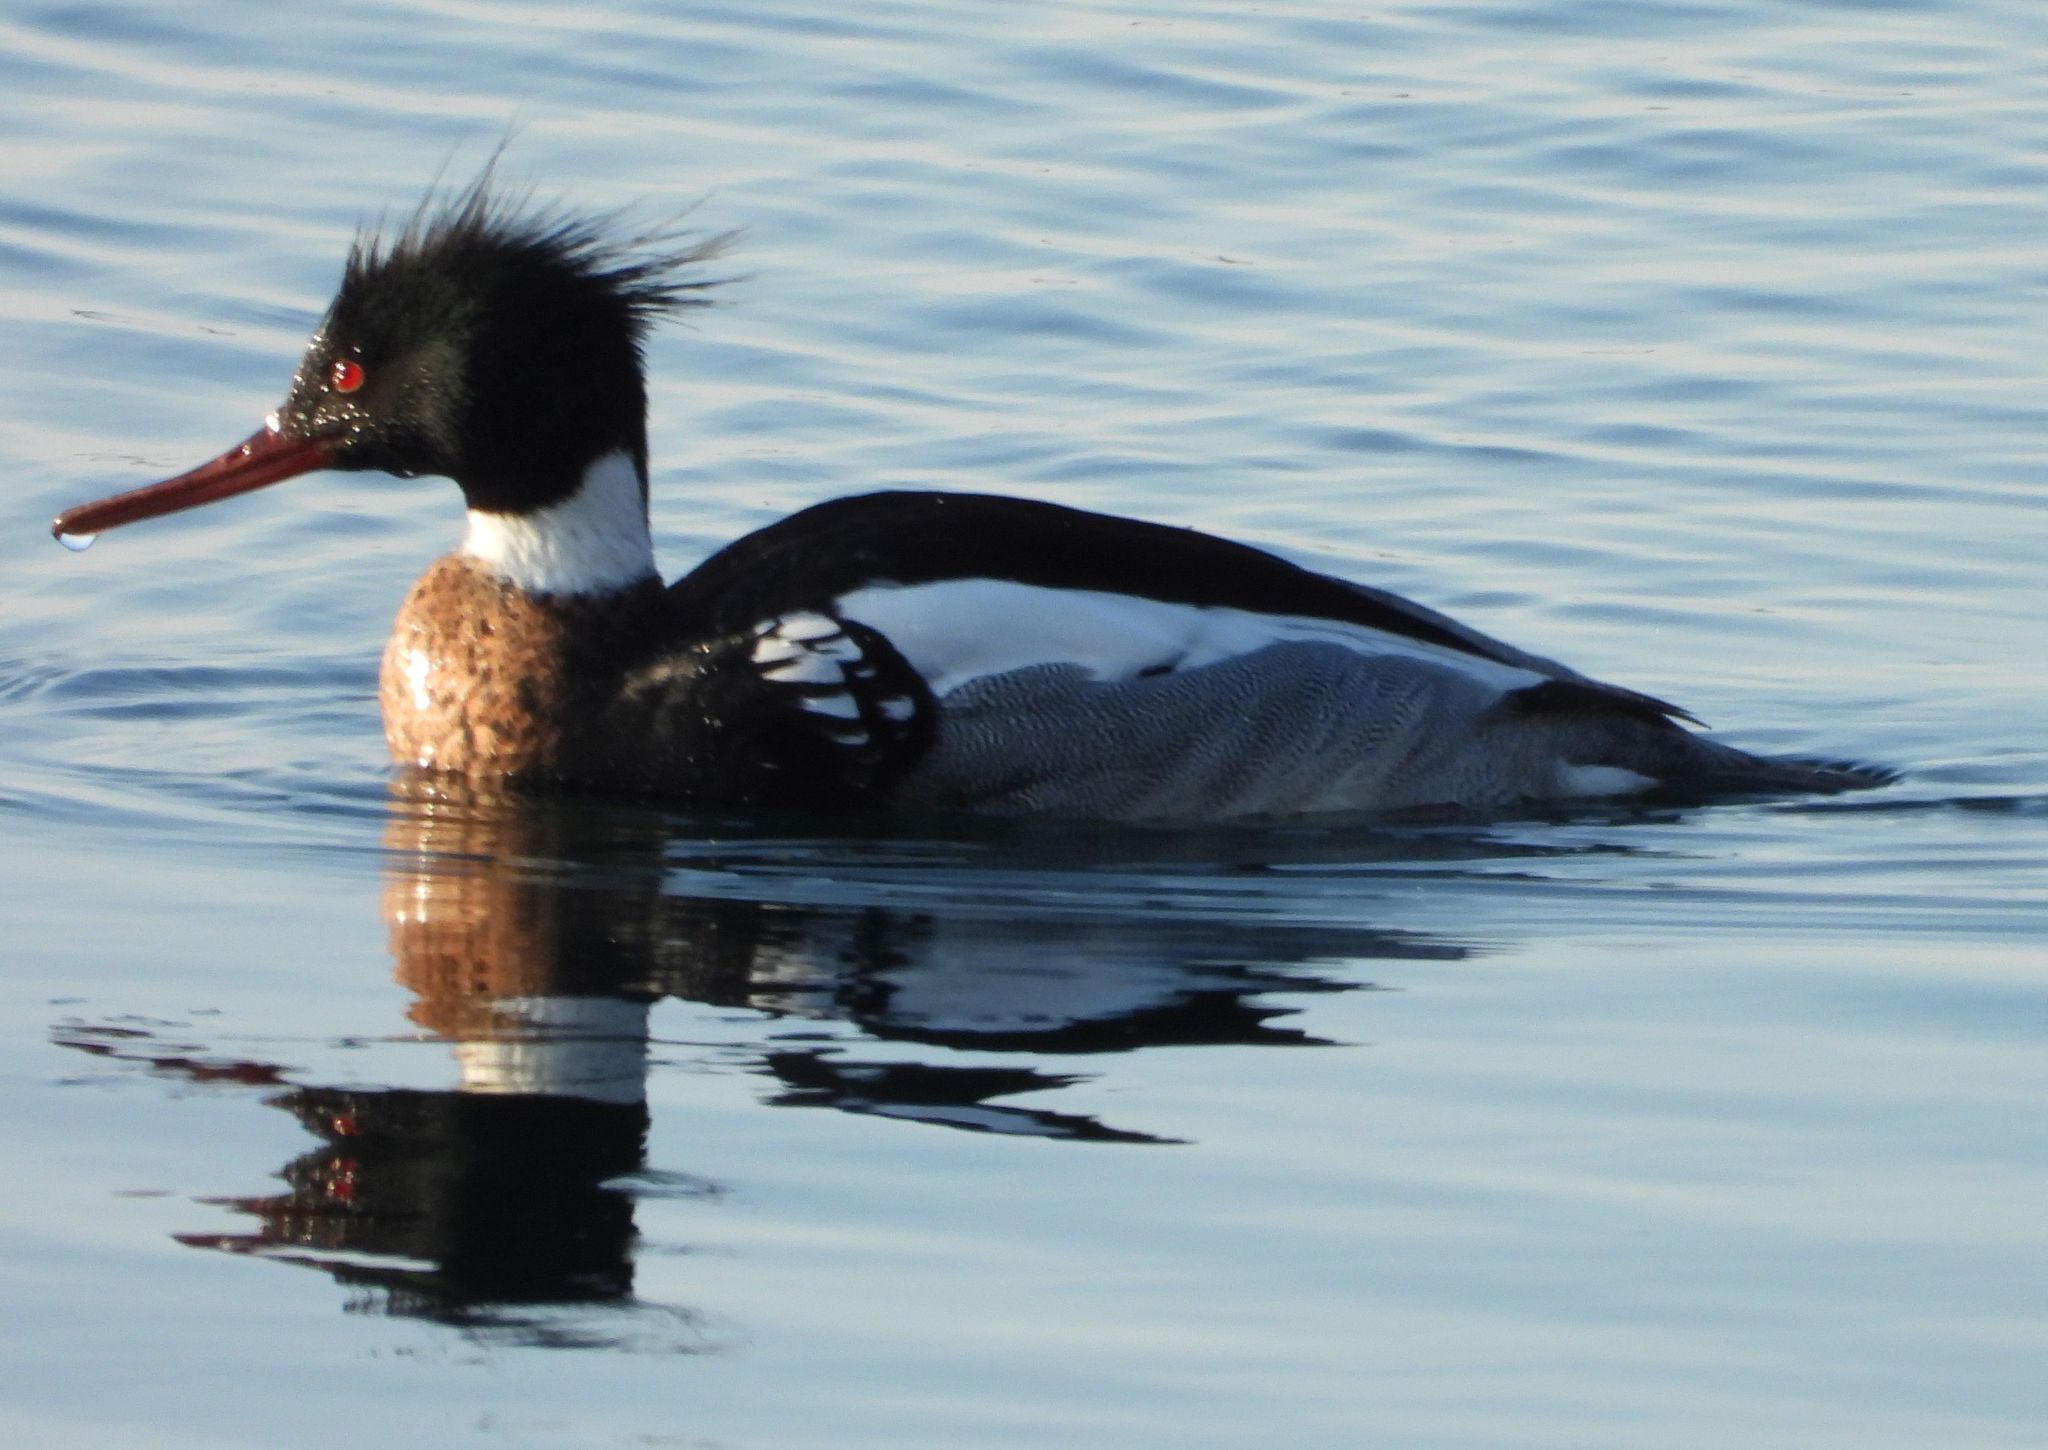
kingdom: Animalia
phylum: Chordata
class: Aves
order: Anseriformes
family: Anatidae
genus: Mergus
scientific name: Mergus serrator
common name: Red-breasted merganser
